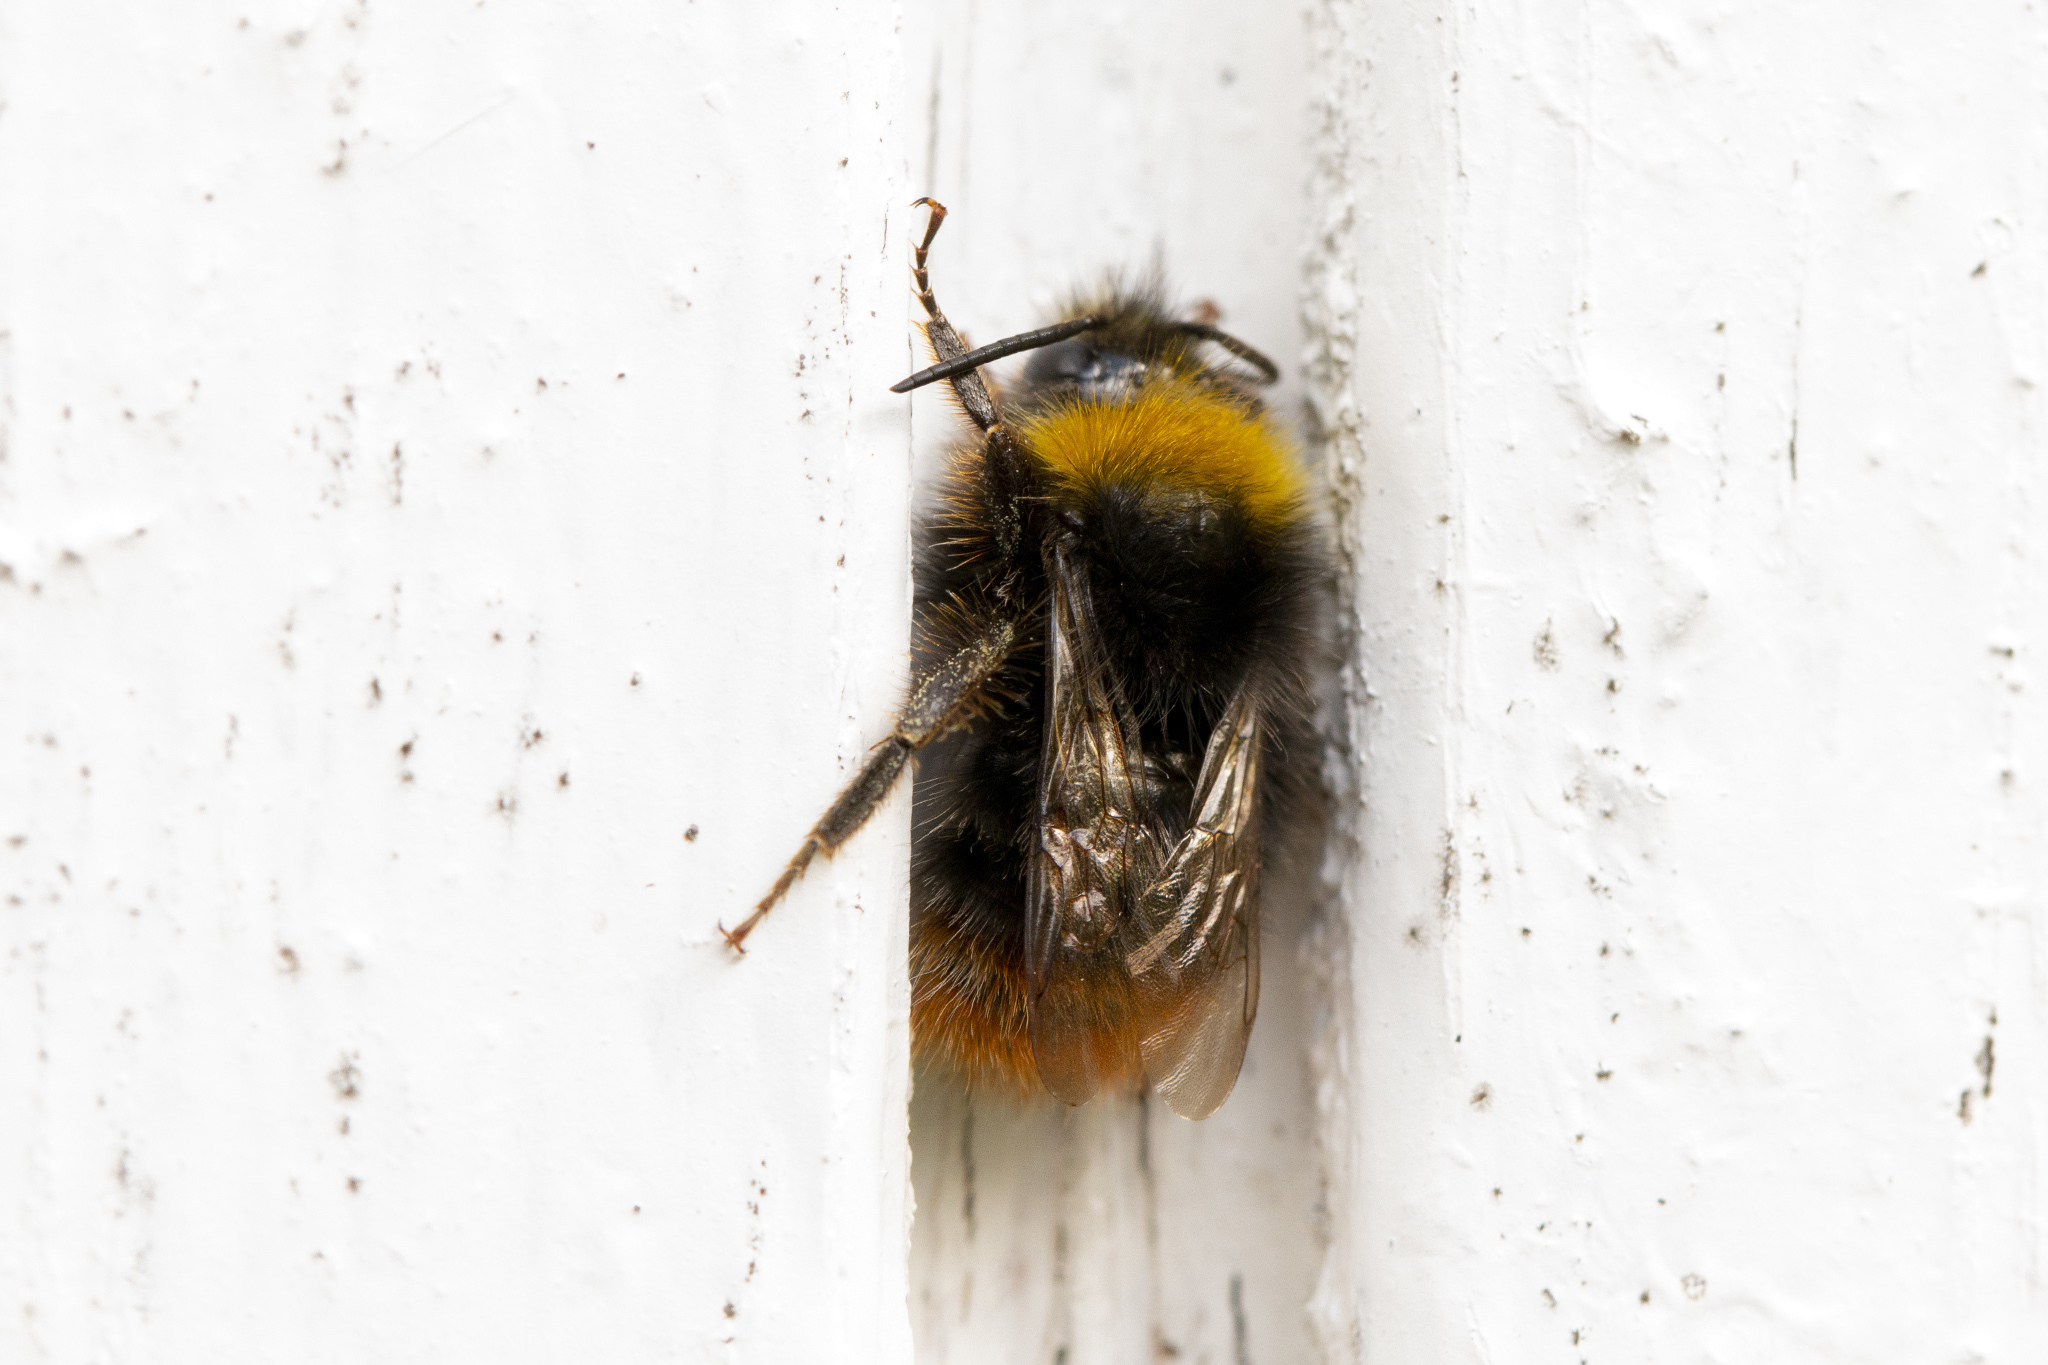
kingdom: Animalia
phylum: Arthropoda
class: Insecta
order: Hymenoptera
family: Apidae
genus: Bombus
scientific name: Bombus pratorum
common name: Early humble-bee
